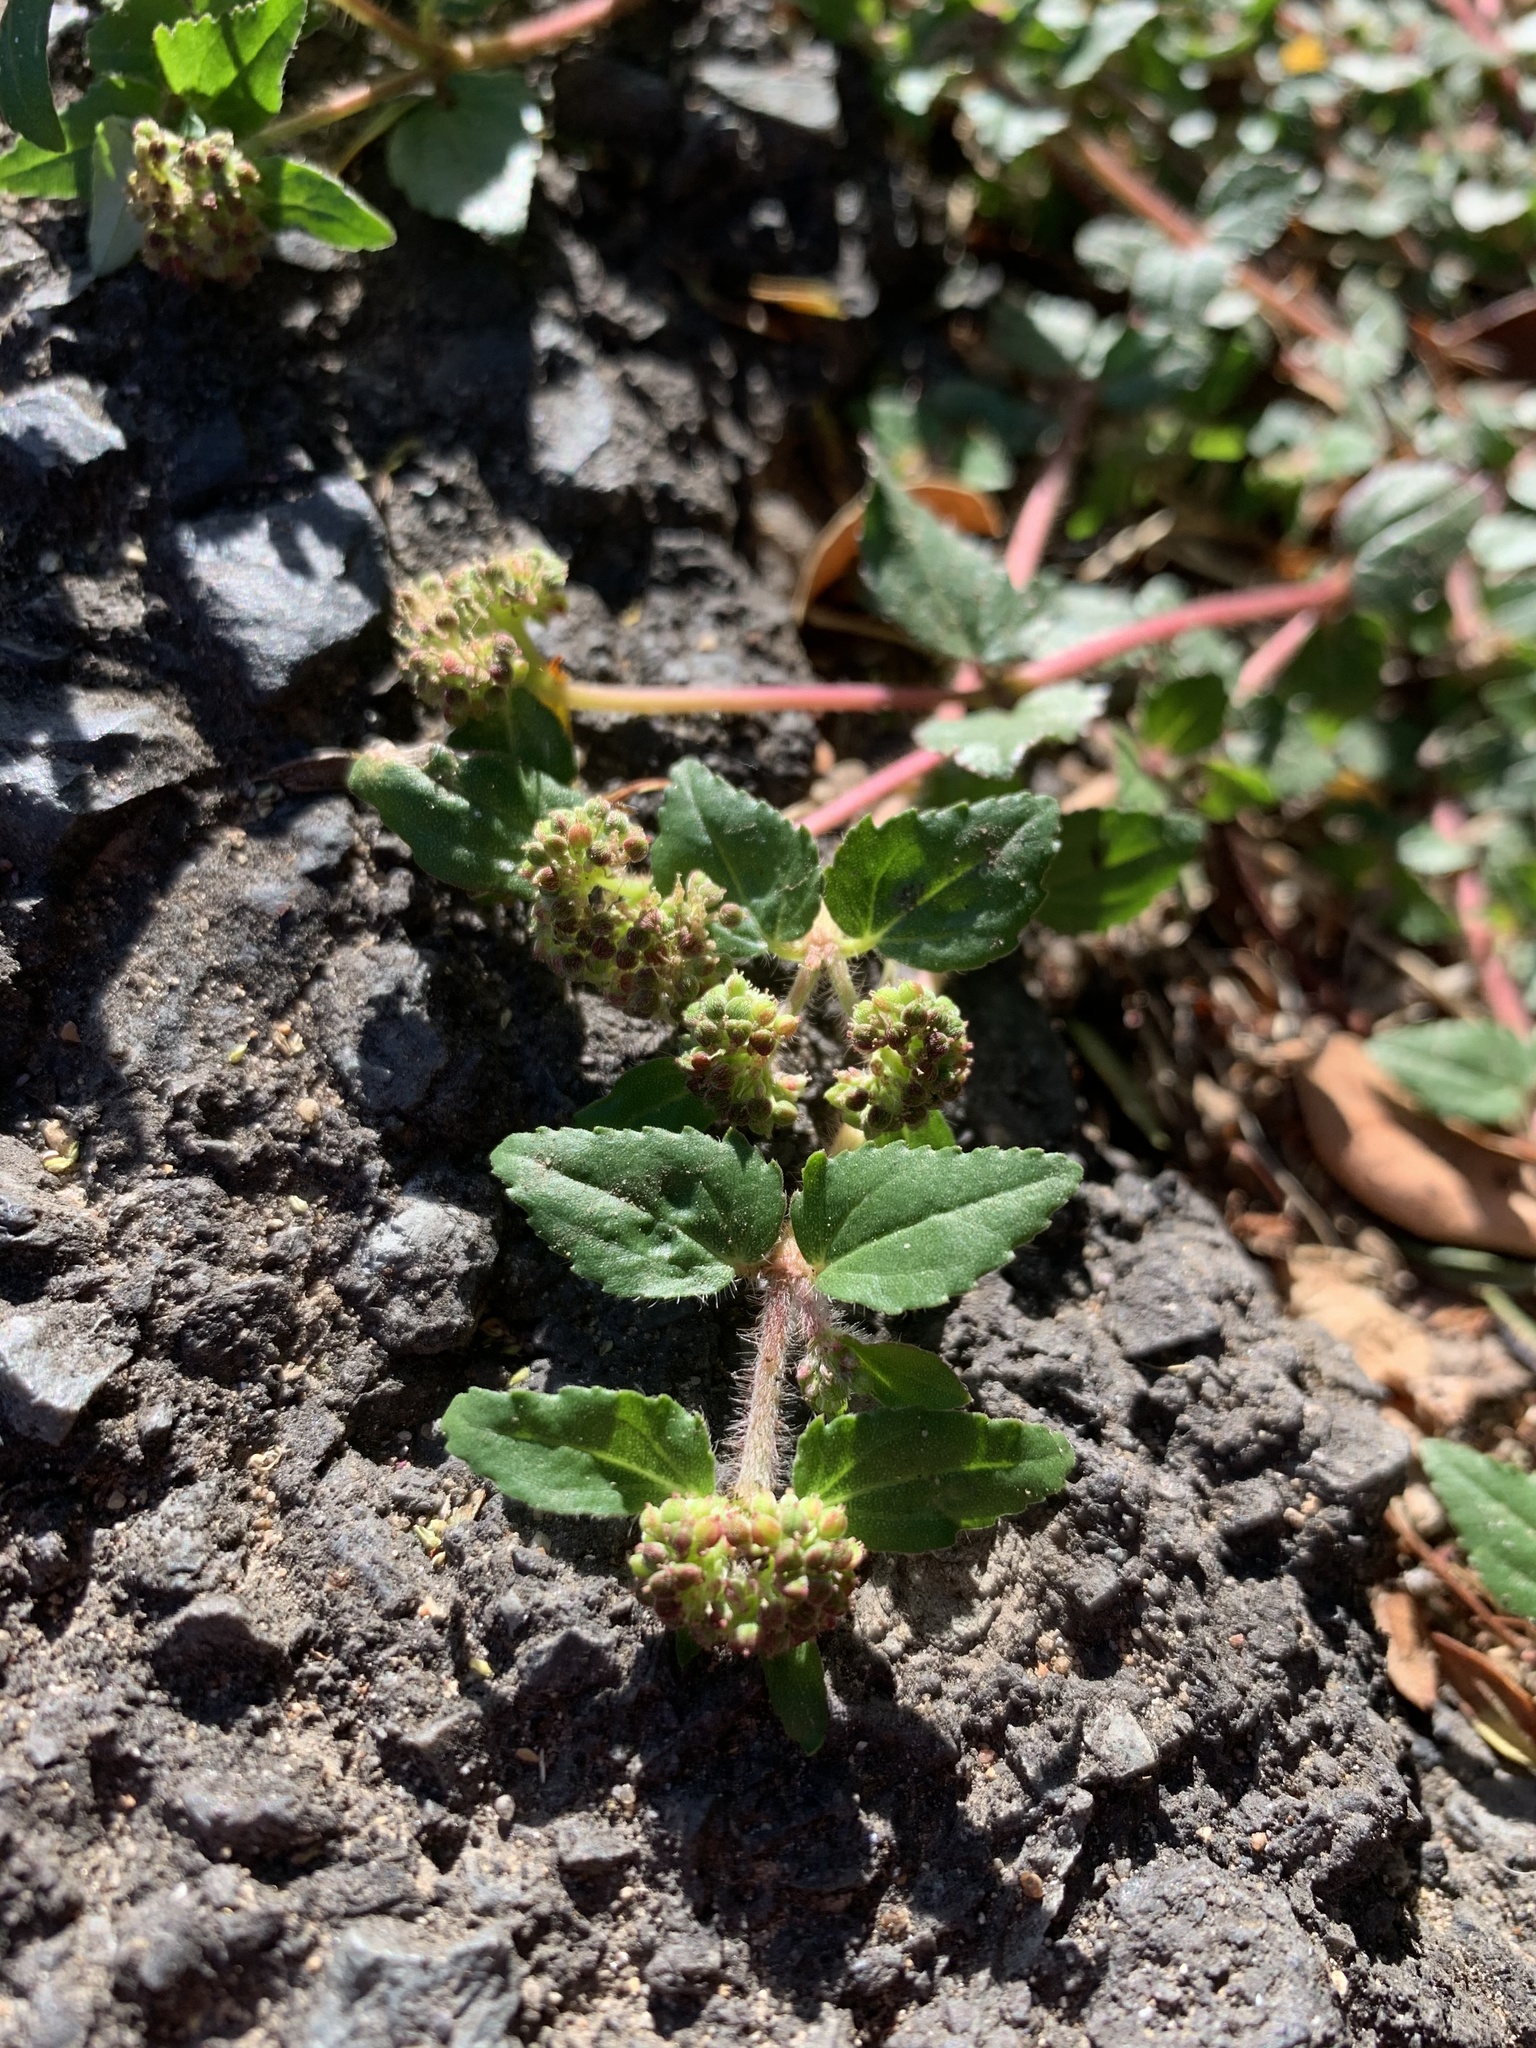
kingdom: Plantae
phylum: Tracheophyta
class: Magnoliopsida
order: Malpighiales
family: Euphorbiaceae
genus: Euphorbia
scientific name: Euphorbia ophthalmica
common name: Florida hammock sandmat
